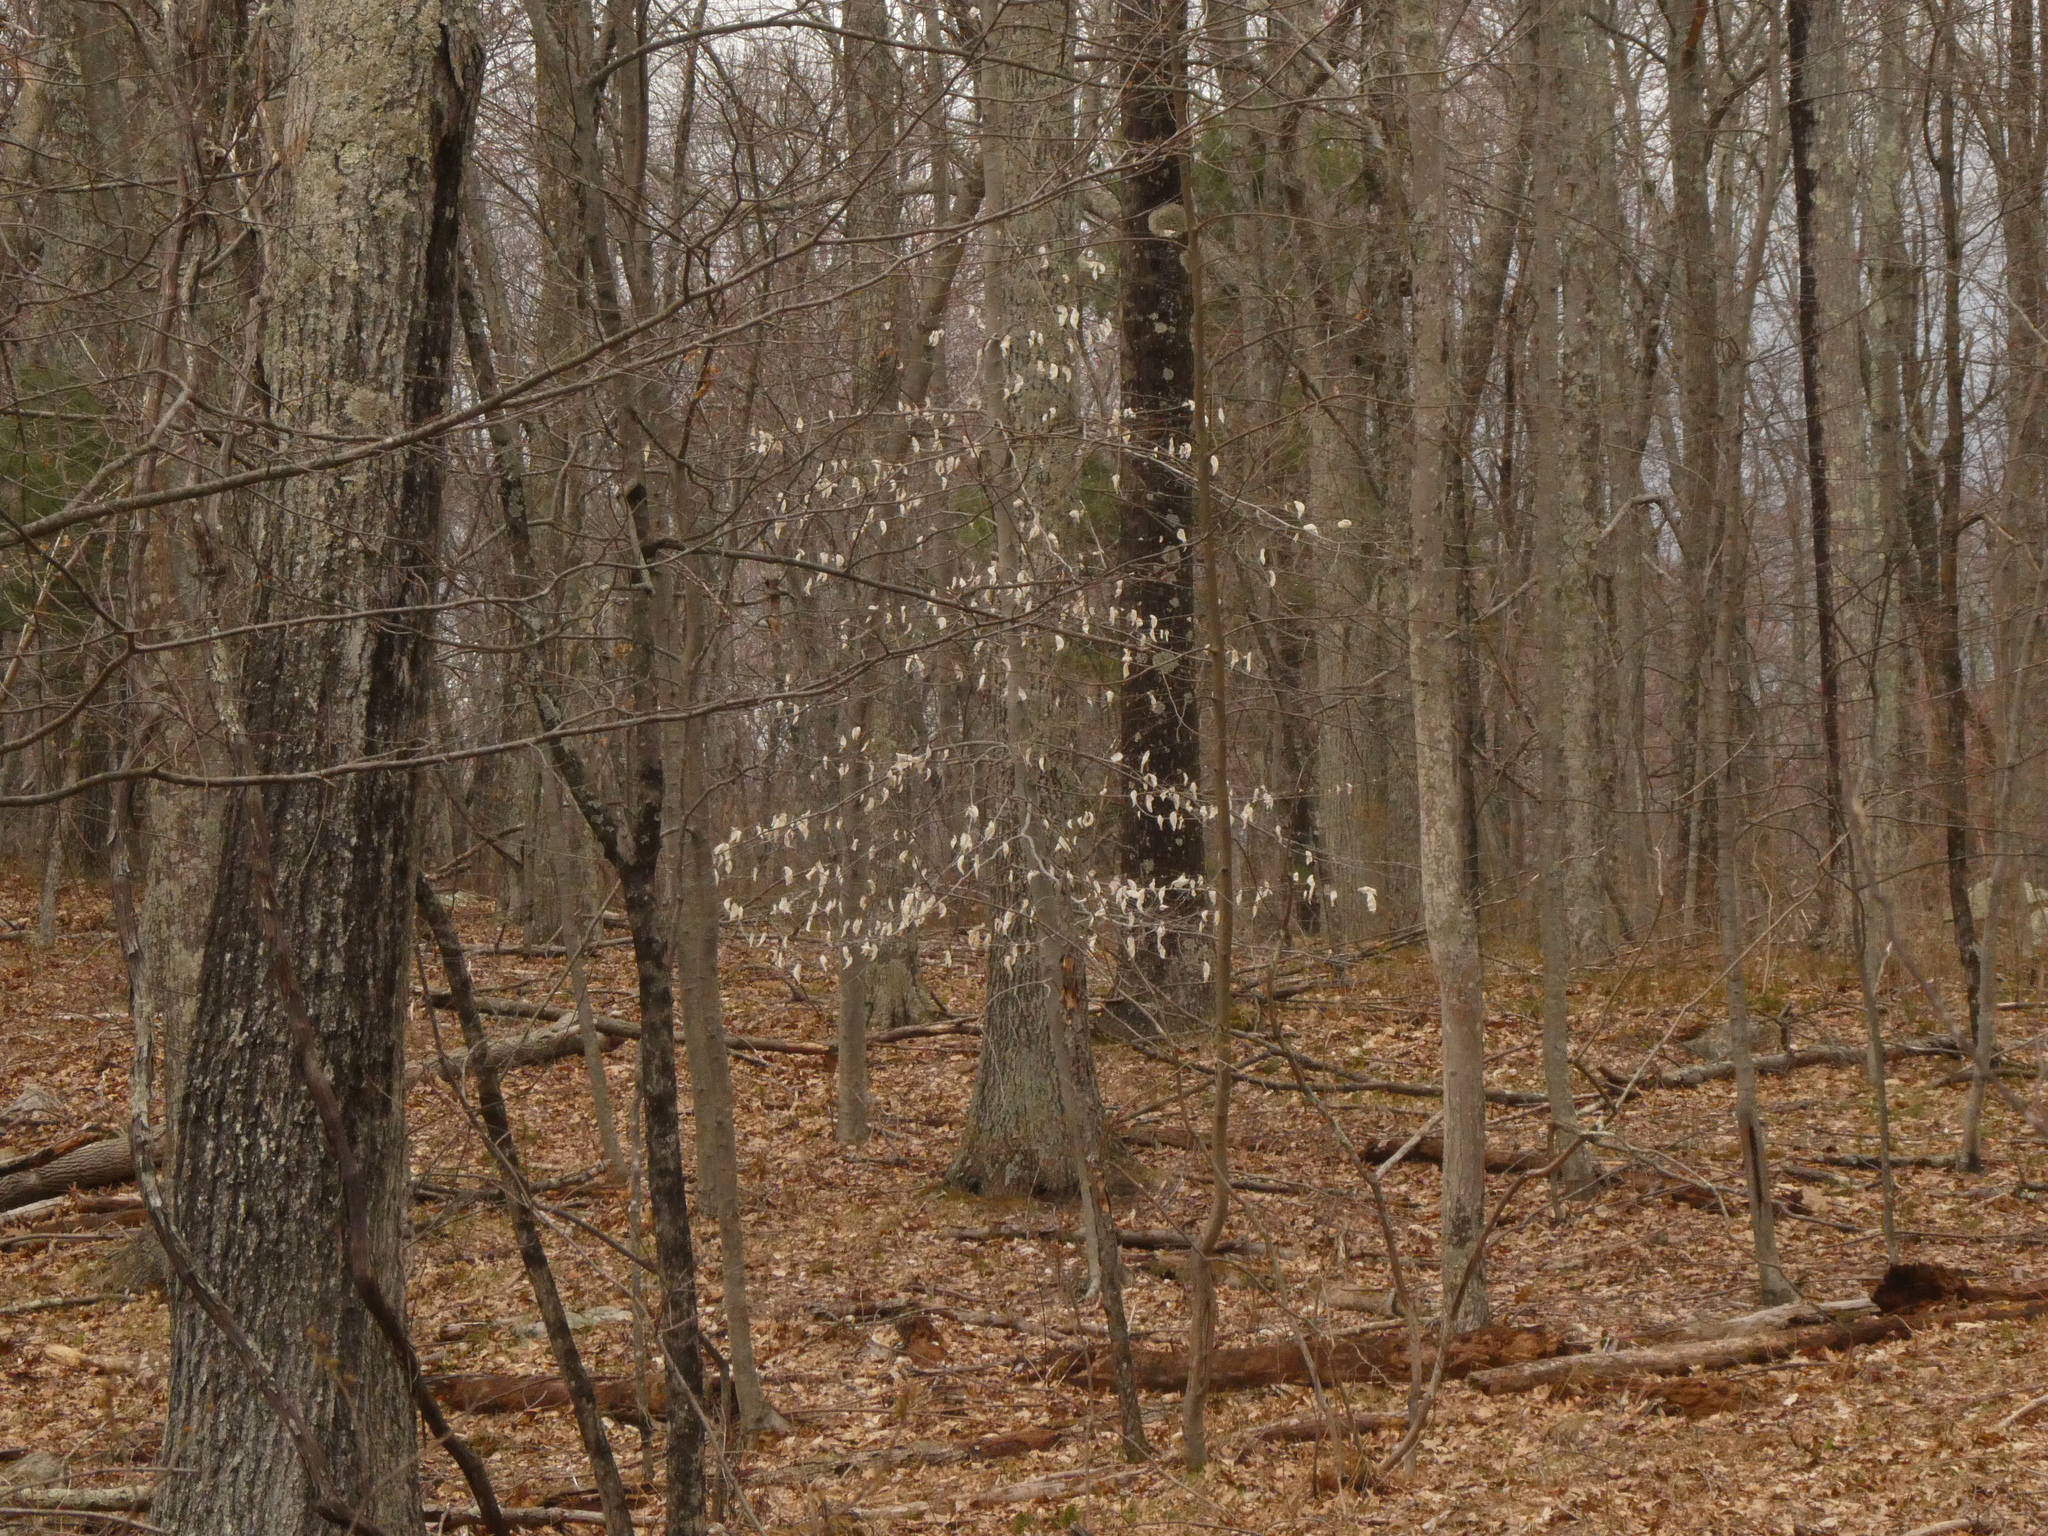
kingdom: Plantae
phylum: Tracheophyta
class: Magnoliopsida
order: Fagales
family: Fagaceae
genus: Fagus
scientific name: Fagus grandifolia
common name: American beech
